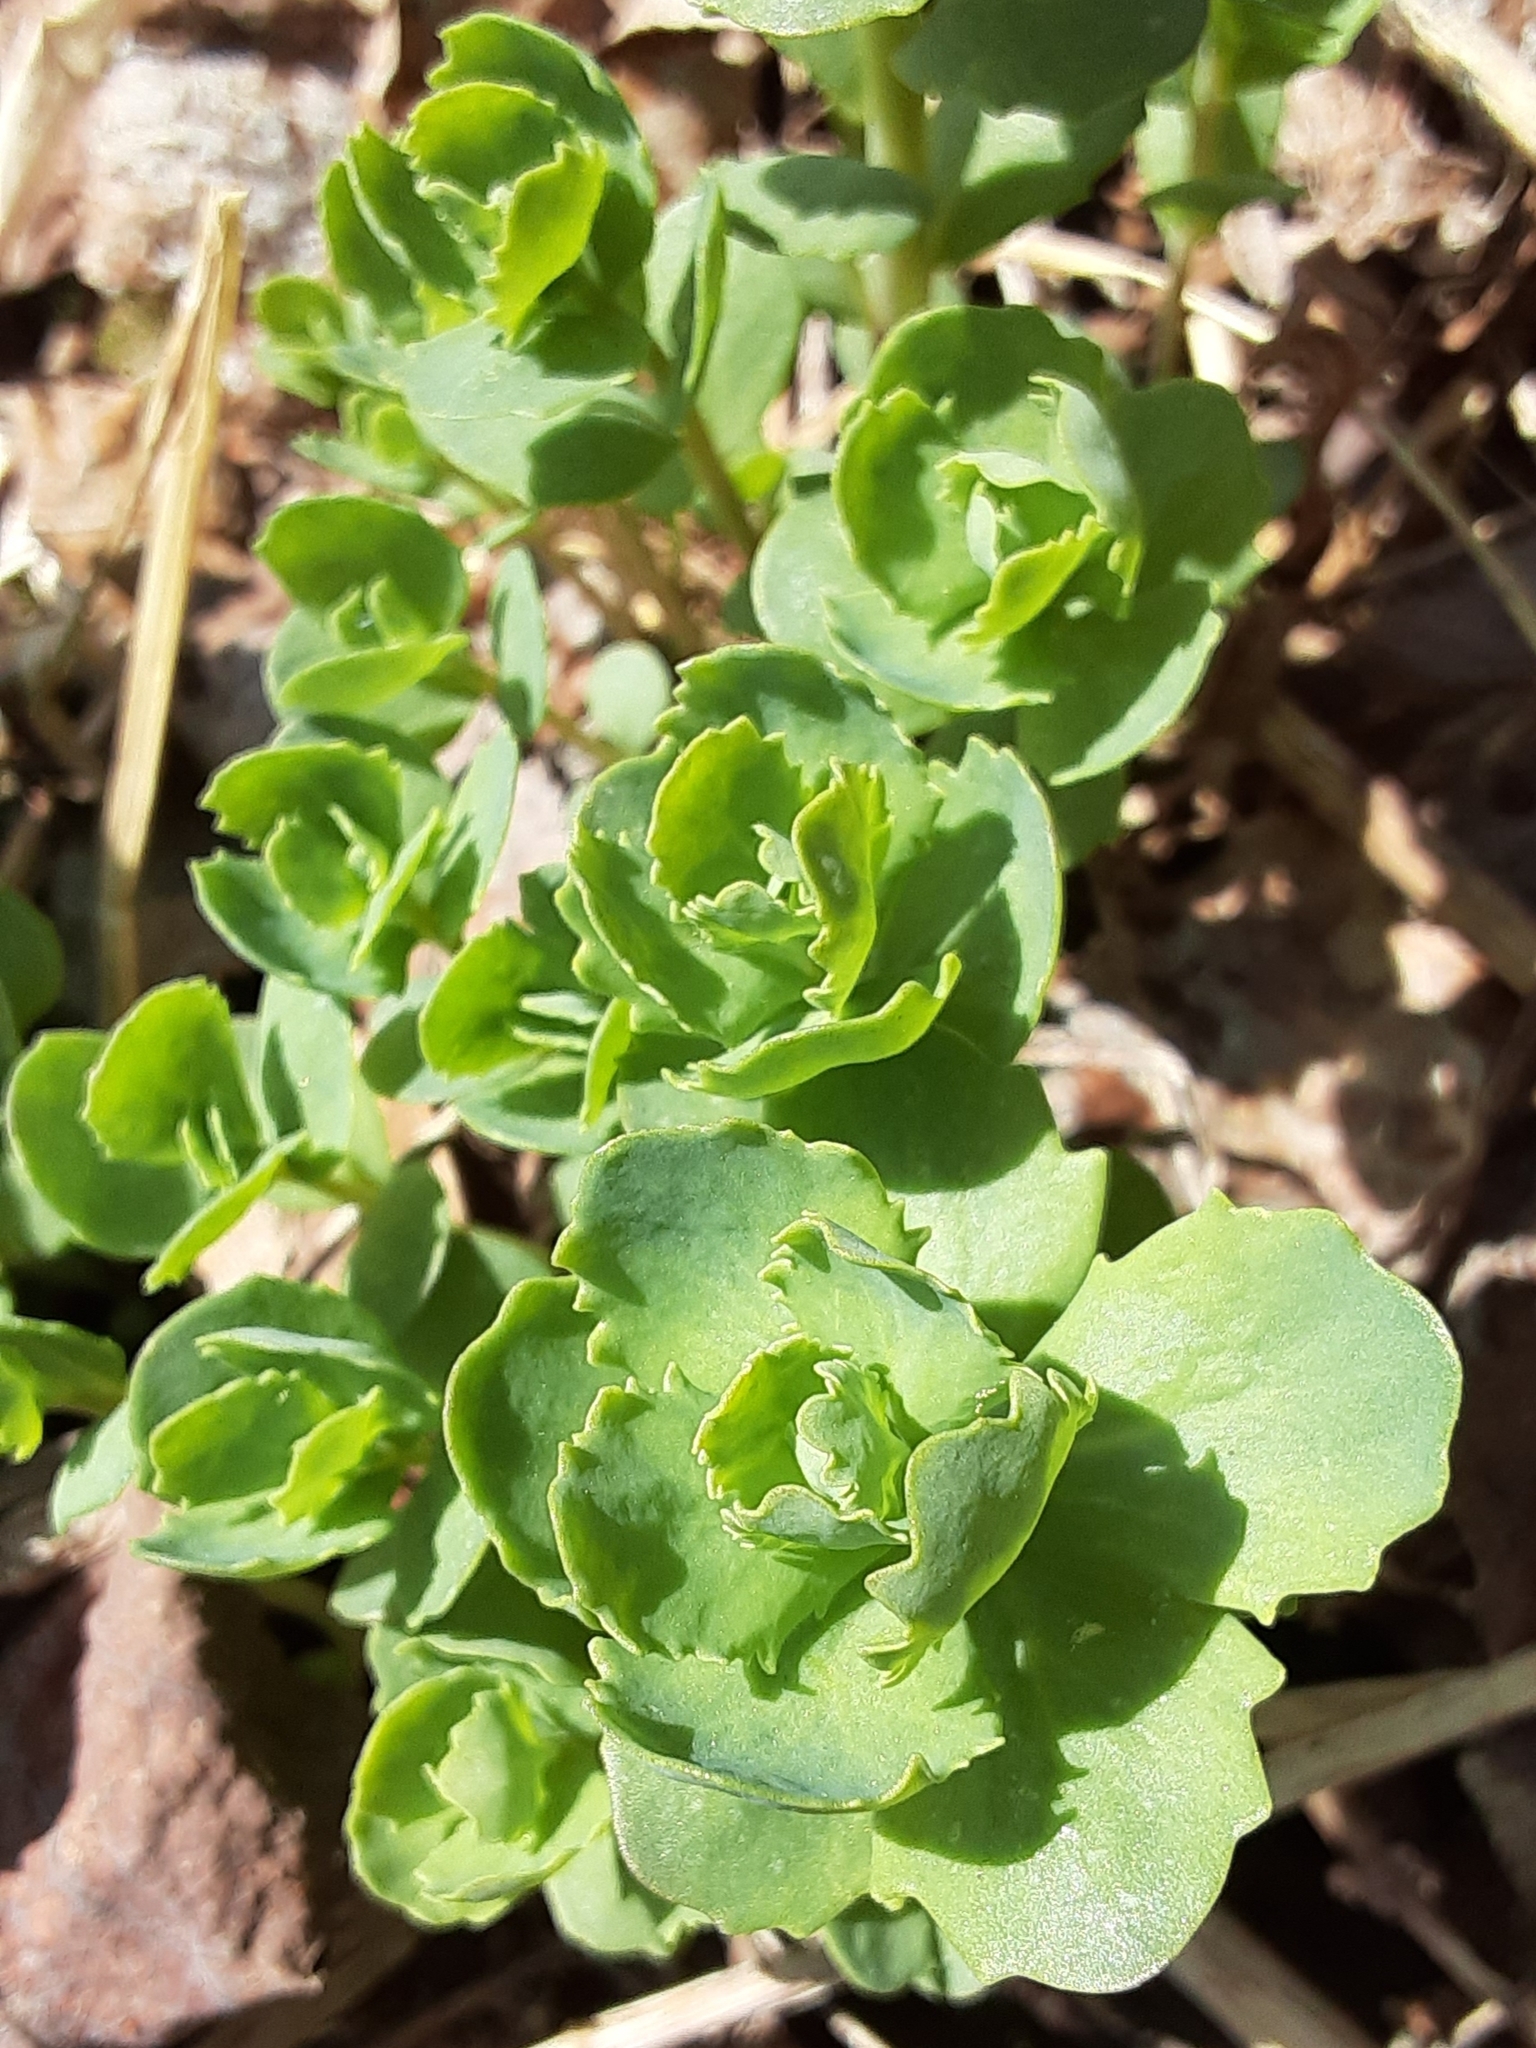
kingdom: Plantae
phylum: Tracheophyta
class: Magnoliopsida
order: Saxifragales
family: Crassulaceae
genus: Hylotelephium
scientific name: Hylotelephium telephium
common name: Live-forever
